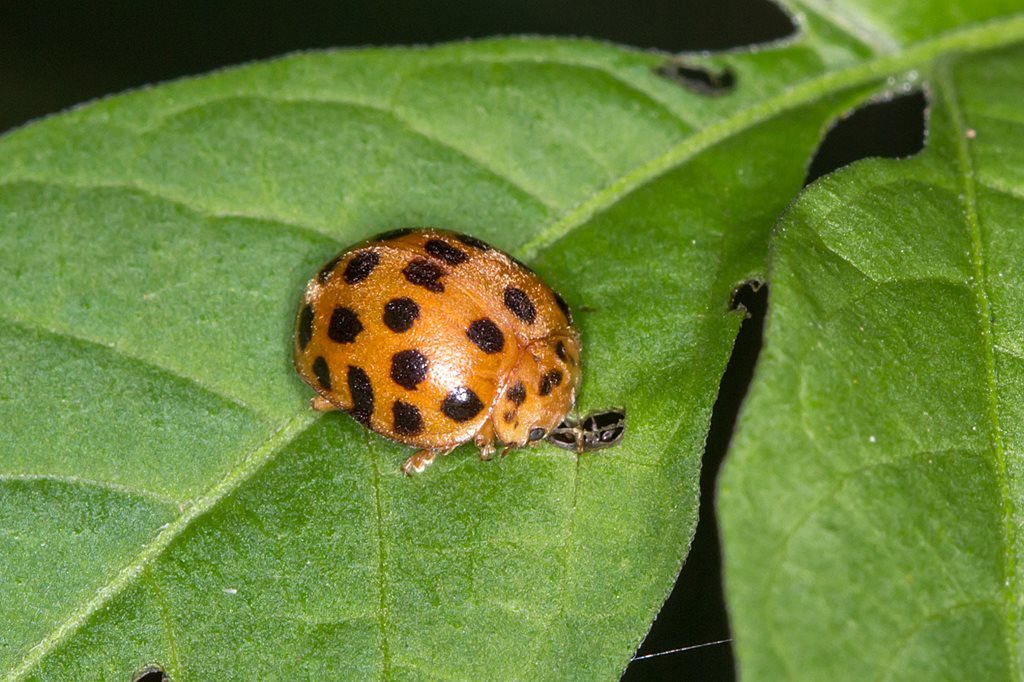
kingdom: Animalia
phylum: Arthropoda
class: Insecta
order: Coleoptera
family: Coccinellidae
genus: Henosepilachna
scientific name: Henosepilachna vigintioctopunctata
